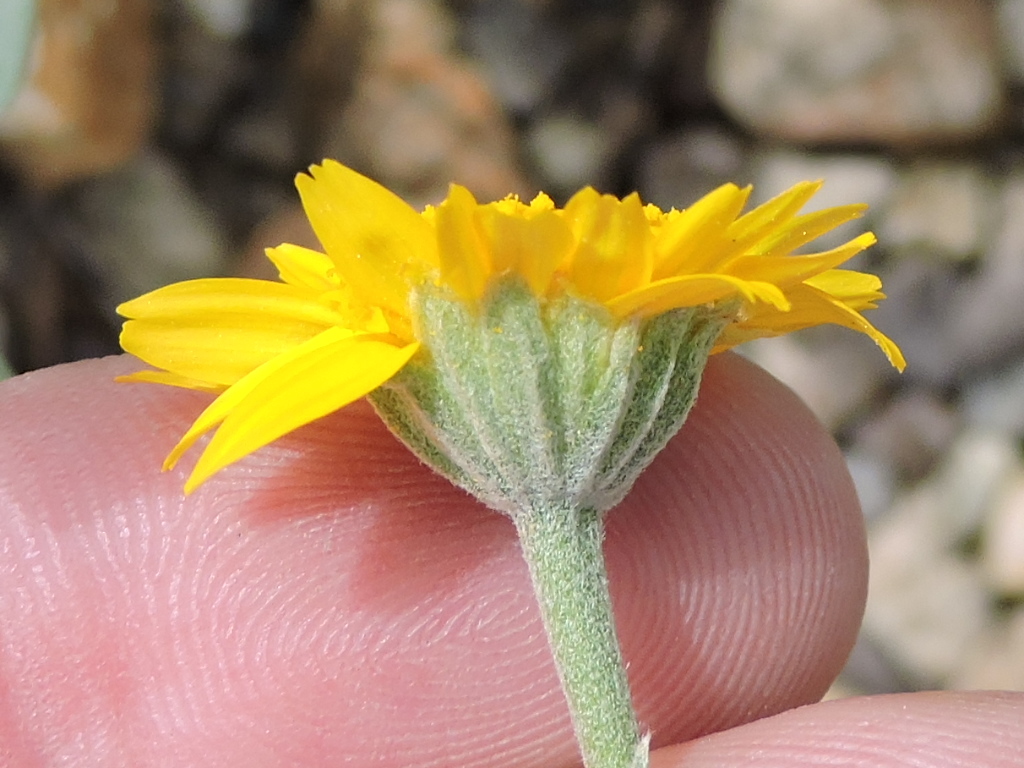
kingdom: Plantae
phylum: Tracheophyta
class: Magnoliopsida
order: Asterales
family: Asteraceae
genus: Picradeniopsis
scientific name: Picradeniopsis absinthifolia
